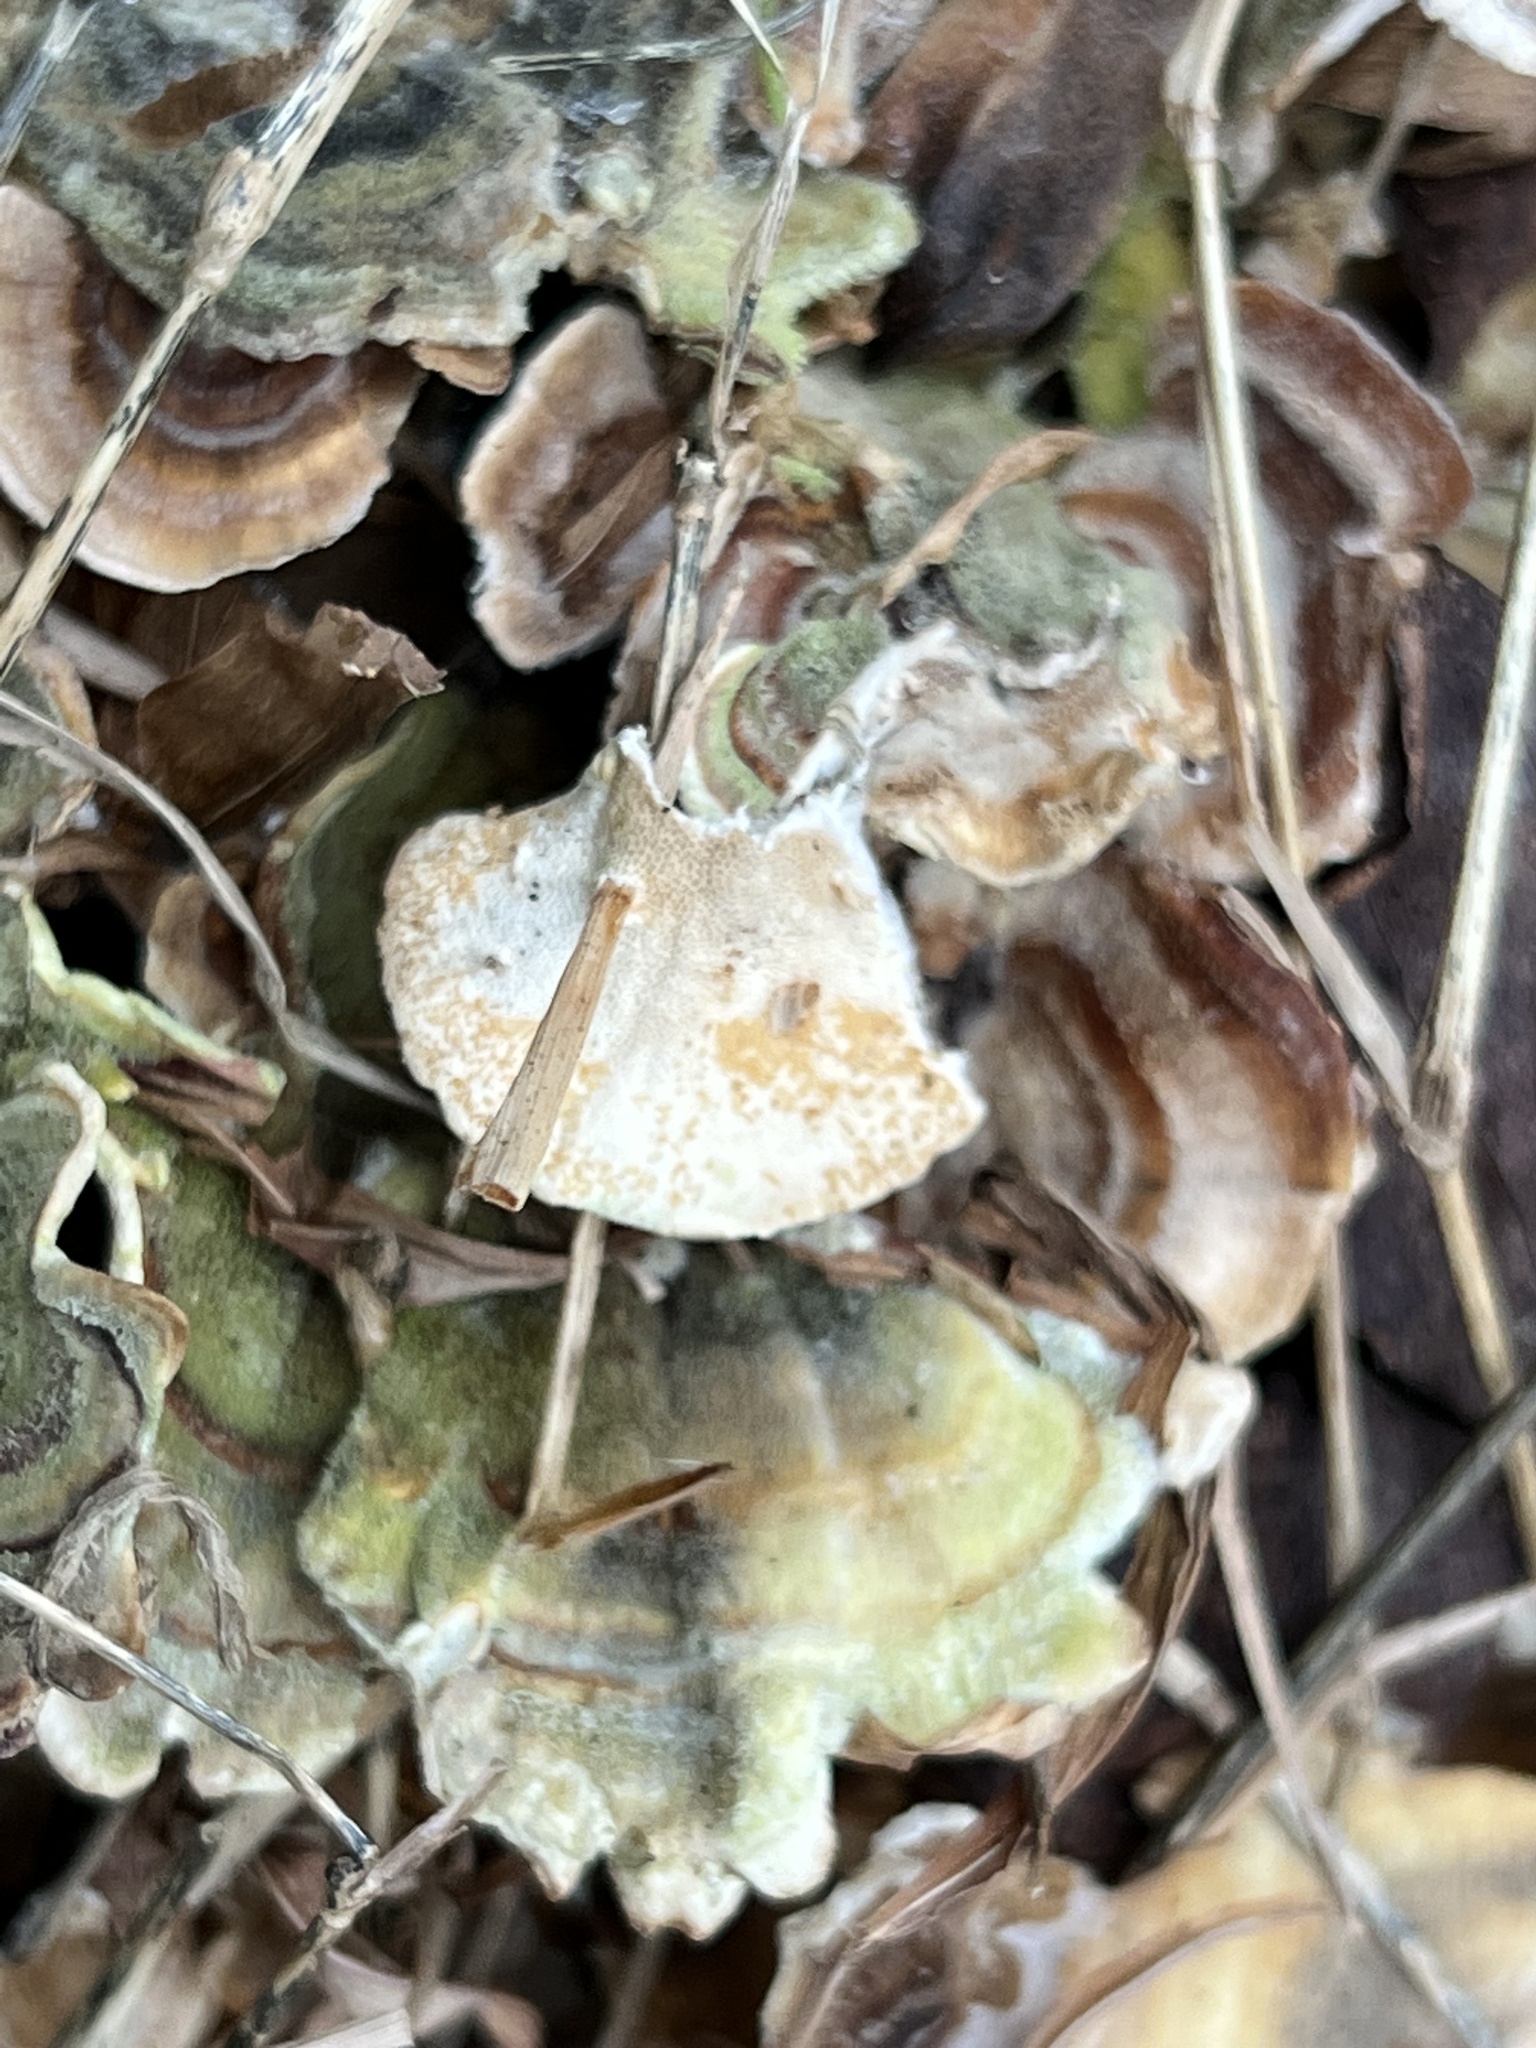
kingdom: Fungi
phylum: Basidiomycota
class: Agaricomycetes
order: Polyporales
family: Polyporaceae
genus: Trametes
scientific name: Trametes versicolor
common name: Turkeytail
